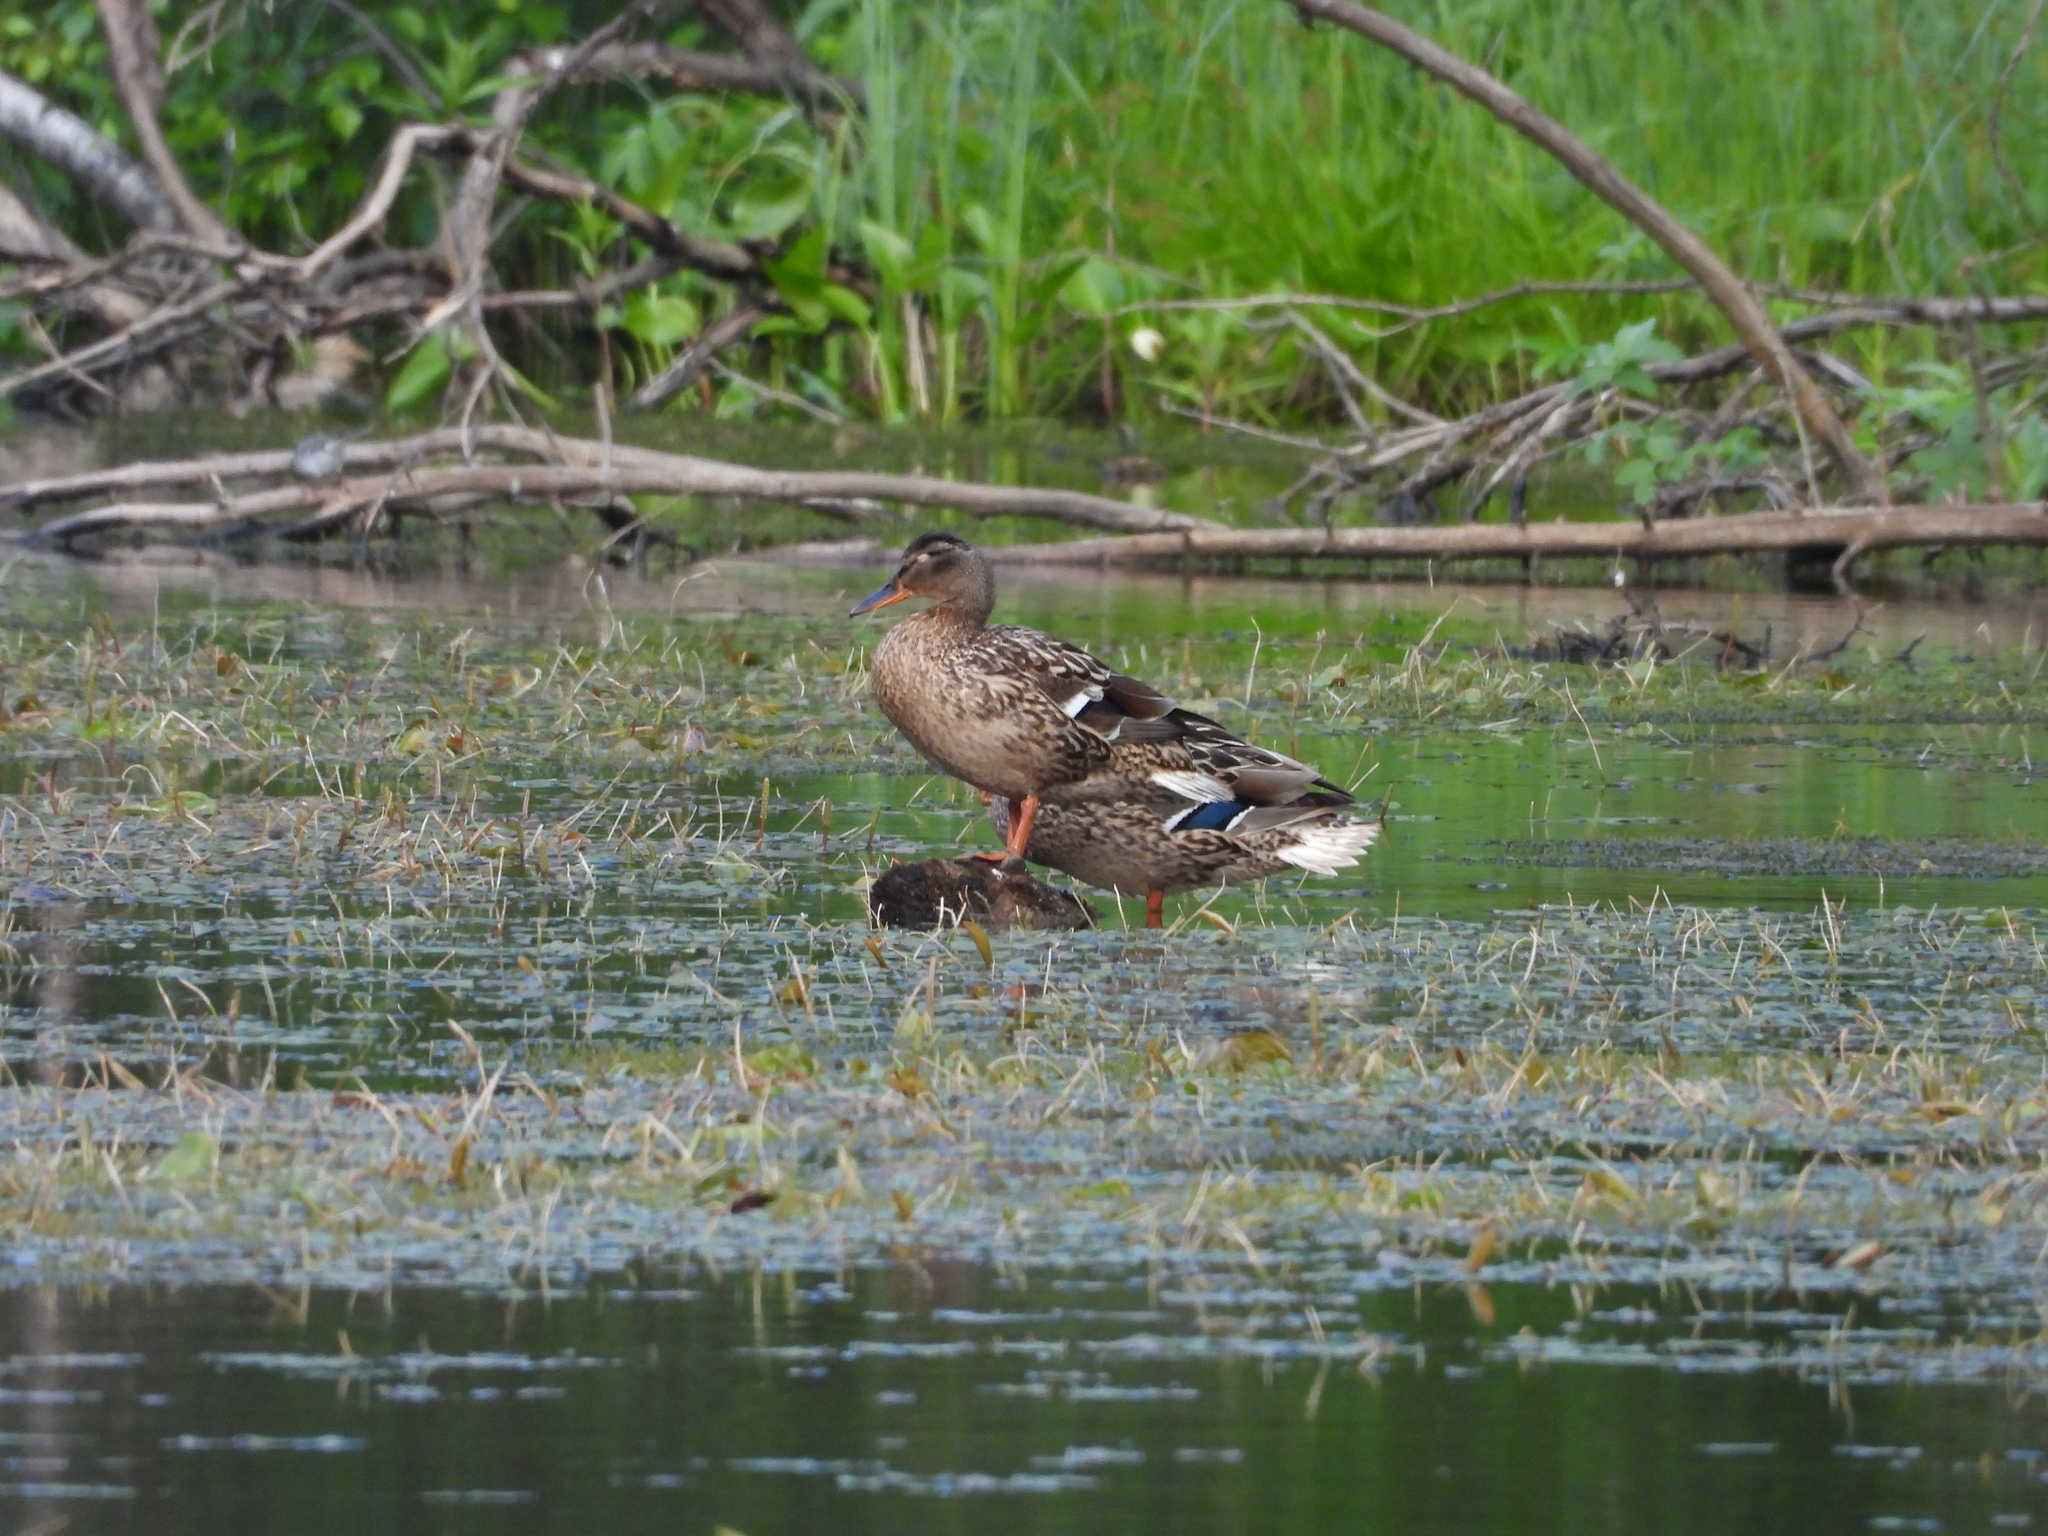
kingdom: Animalia
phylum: Chordata
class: Aves
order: Anseriformes
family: Anatidae
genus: Anas
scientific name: Anas platyrhynchos
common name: Mallard
